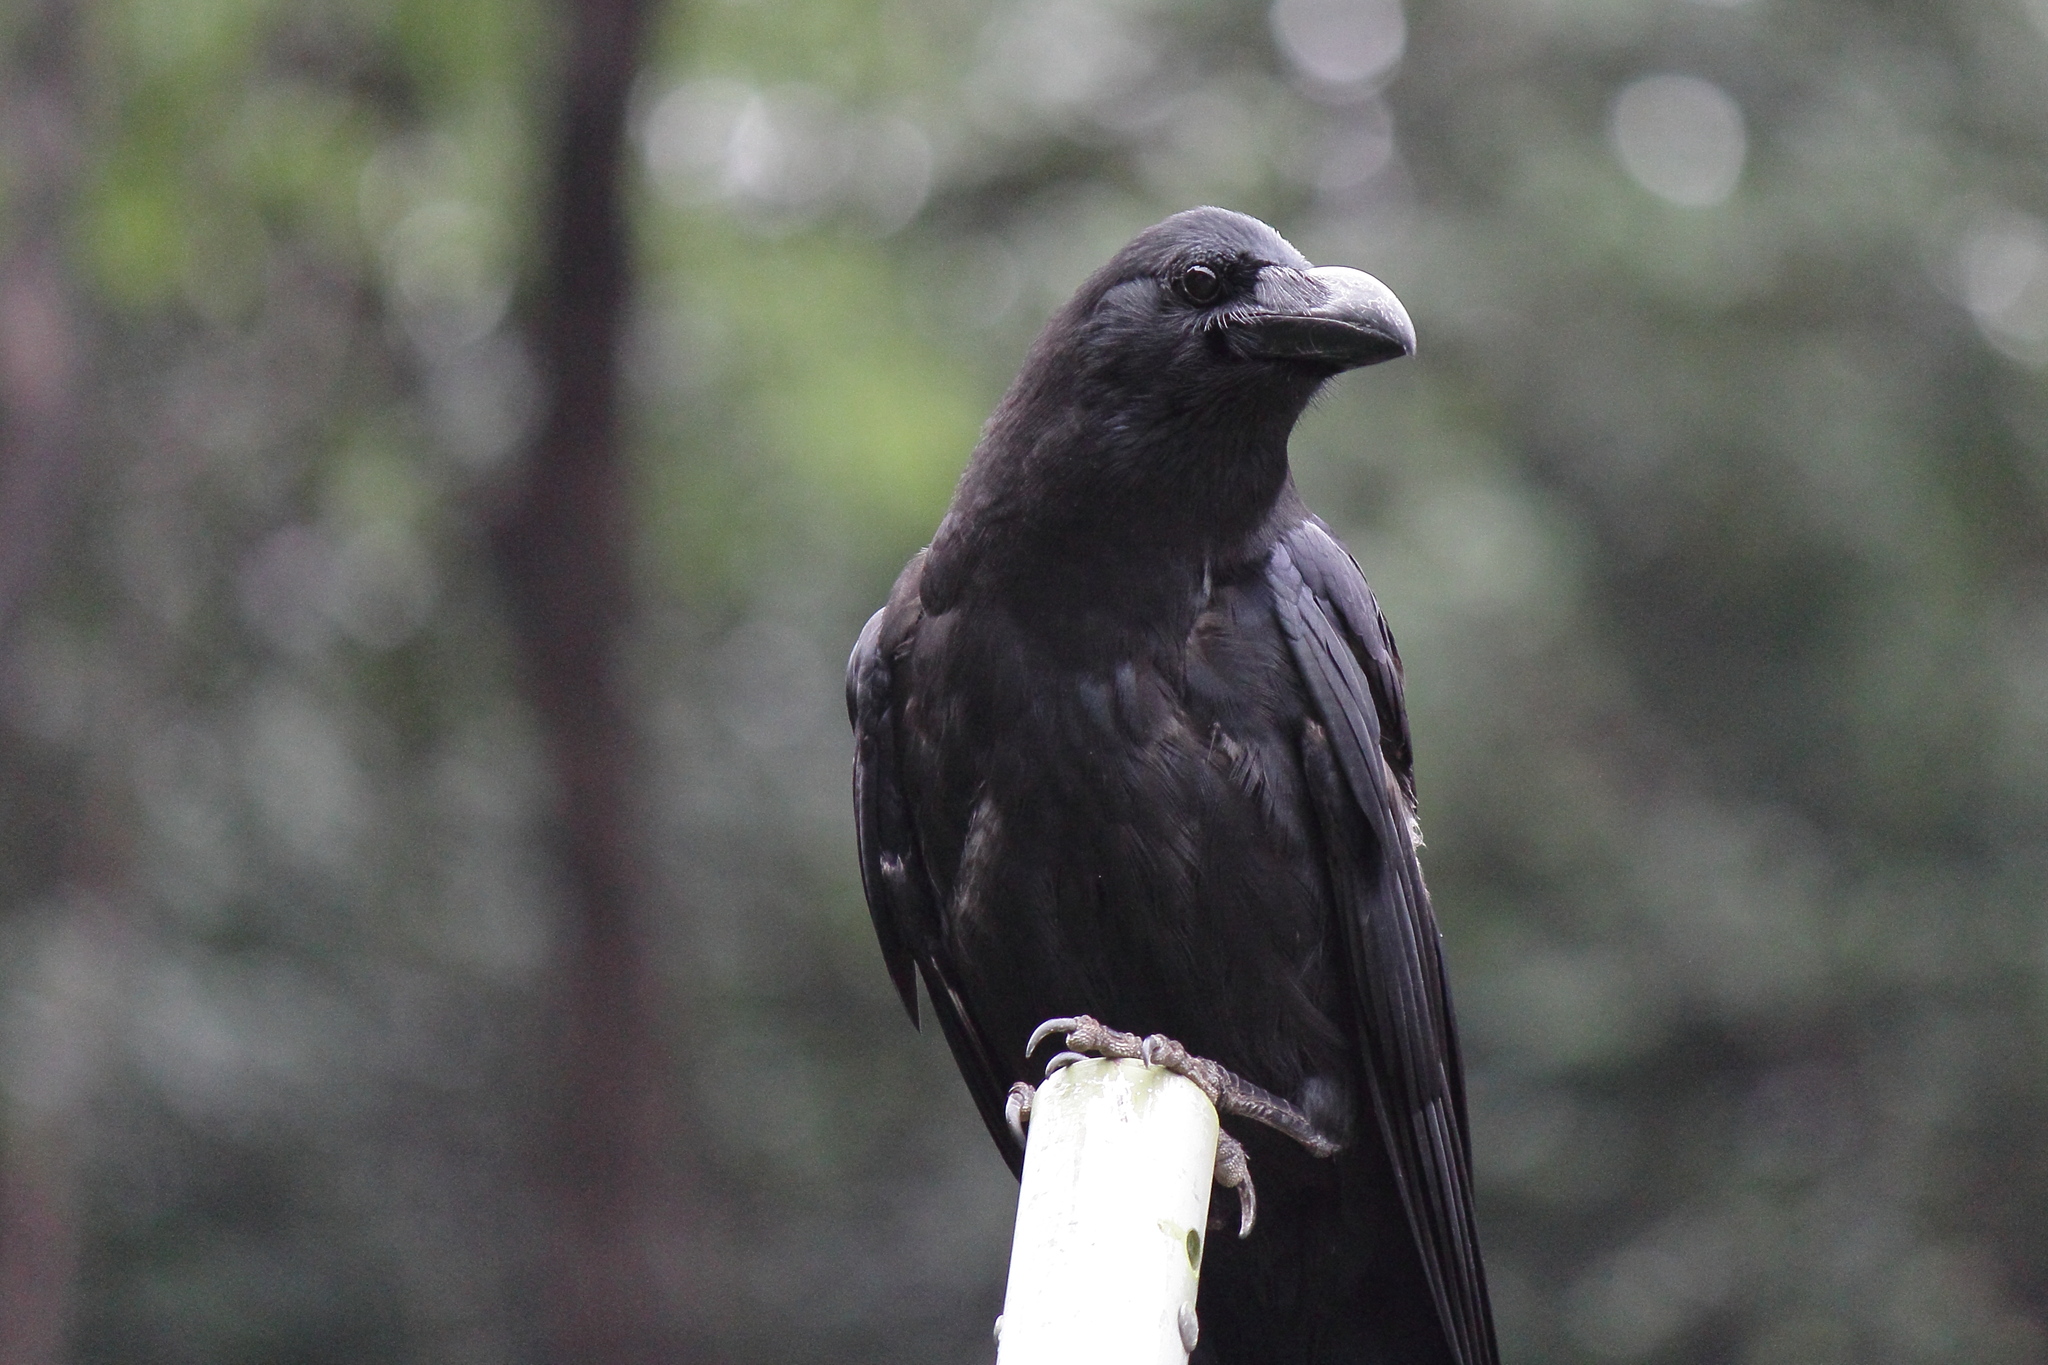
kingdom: Animalia
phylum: Chordata
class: Aves
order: Passeriformes
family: Corvidae
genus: Corvus
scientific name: Corvus macrorhynchos
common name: Large-billed crow
